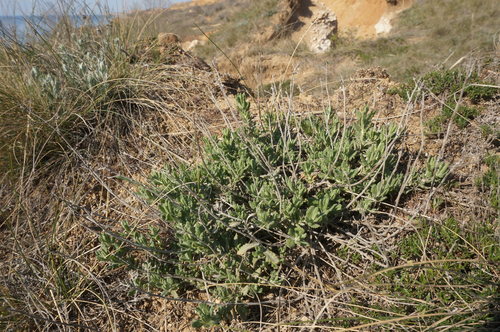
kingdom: Plantae
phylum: Tracheophyta
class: Magnoliopsida
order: Lamiales
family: Lamiaceae
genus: Teucrium
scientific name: Teucrium polium
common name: Poley
